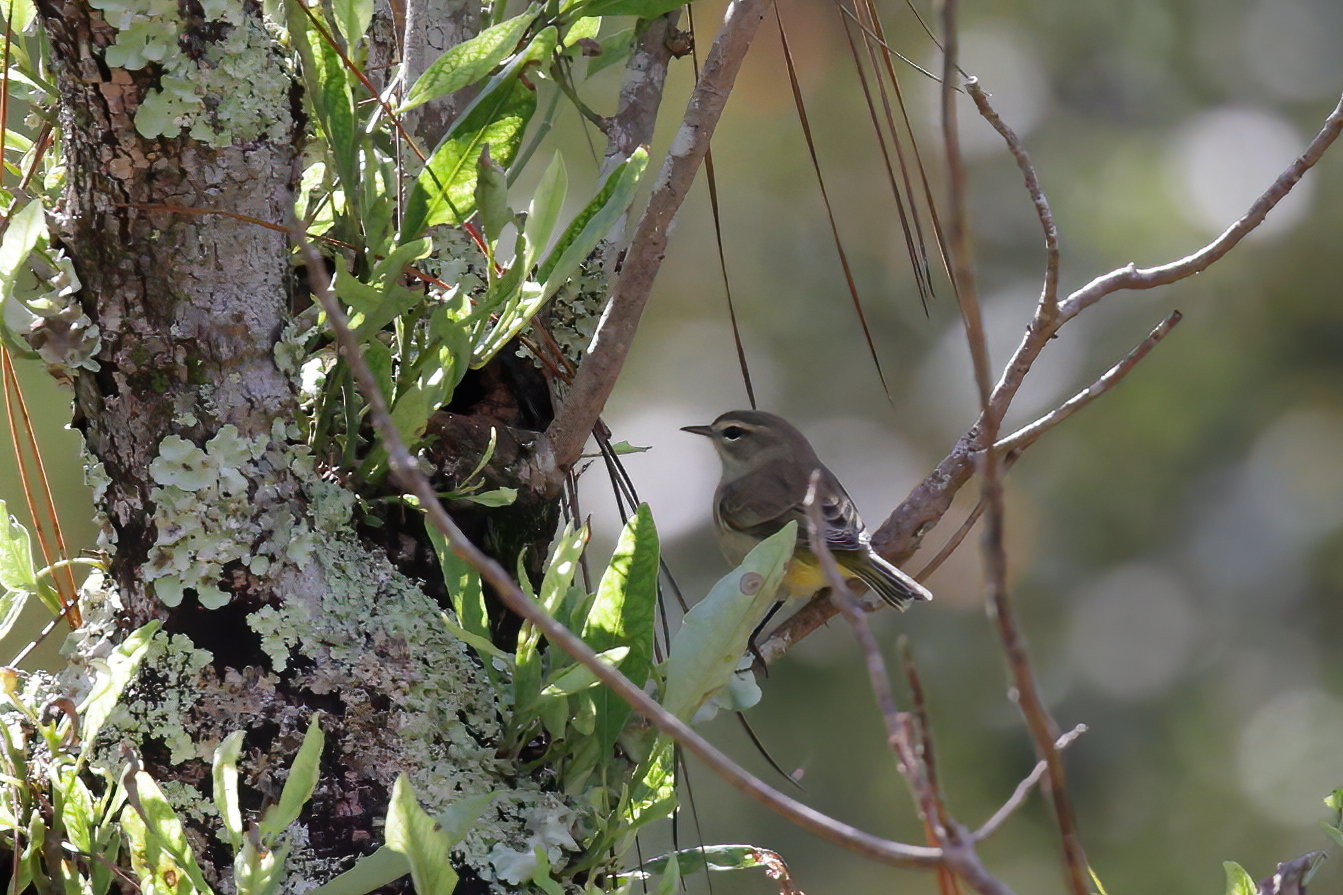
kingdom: Animalia
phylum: Chordata
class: Aves
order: Passeriformes
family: Parulidae
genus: Setophaga
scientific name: Setophaga palmarum
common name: Palm warbler
